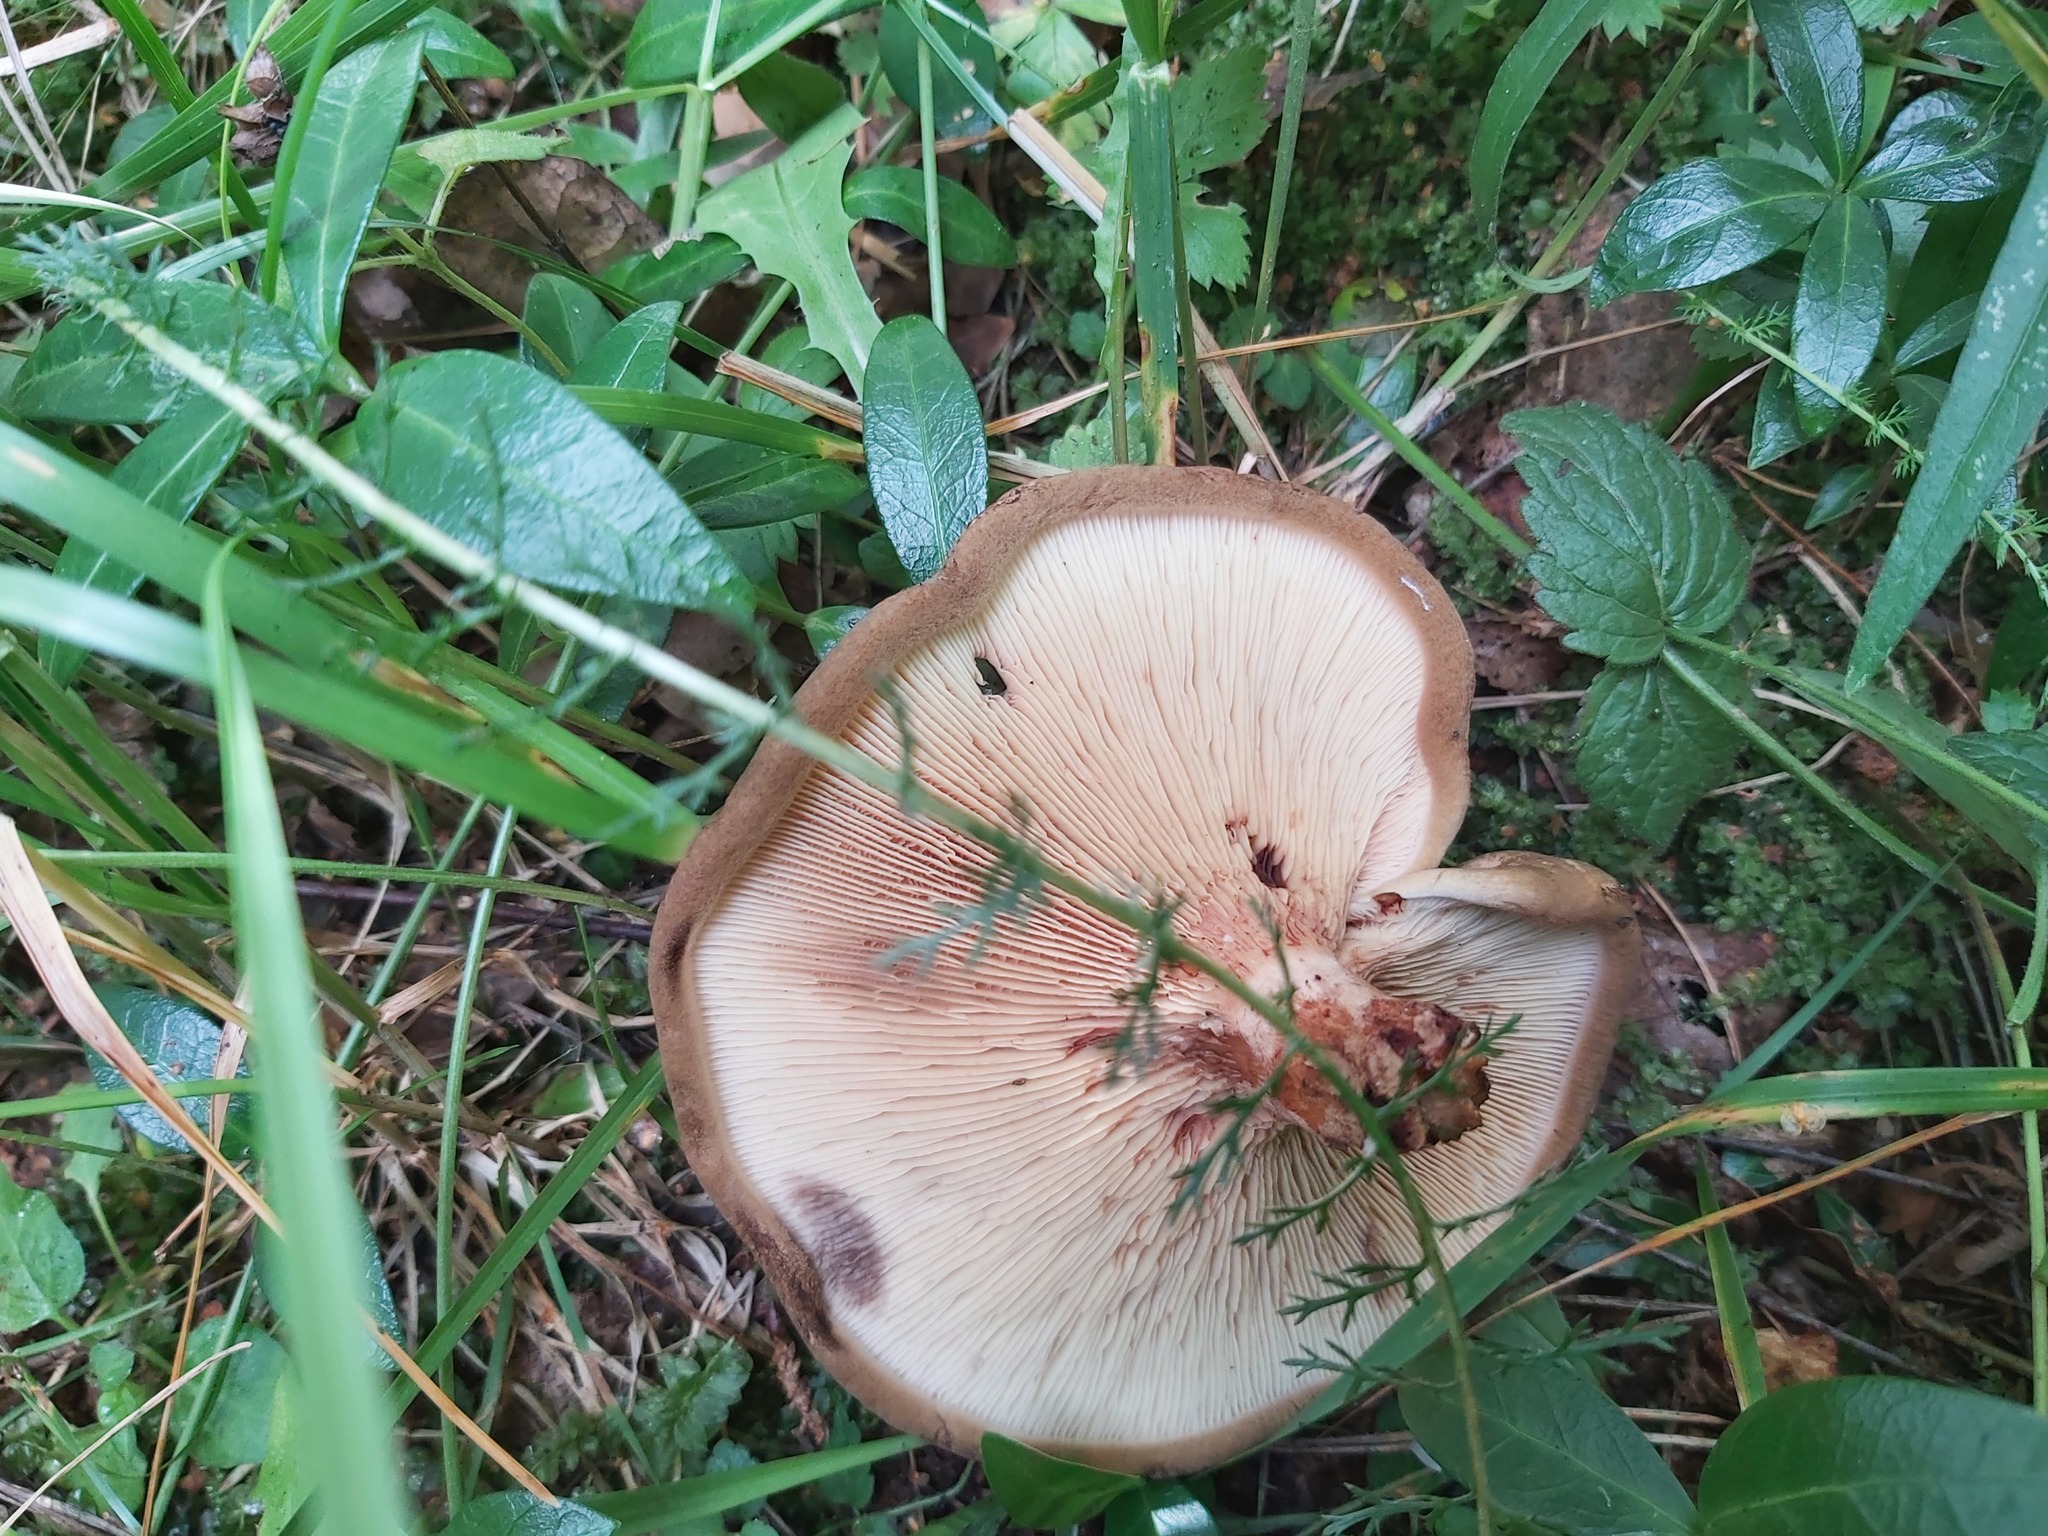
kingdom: Fungi
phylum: Basidiomycota
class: Agaricomycetes
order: Boletales
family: Paxillaceae
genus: Paxillus
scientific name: Paxillus involutus
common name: Brown roll rim
